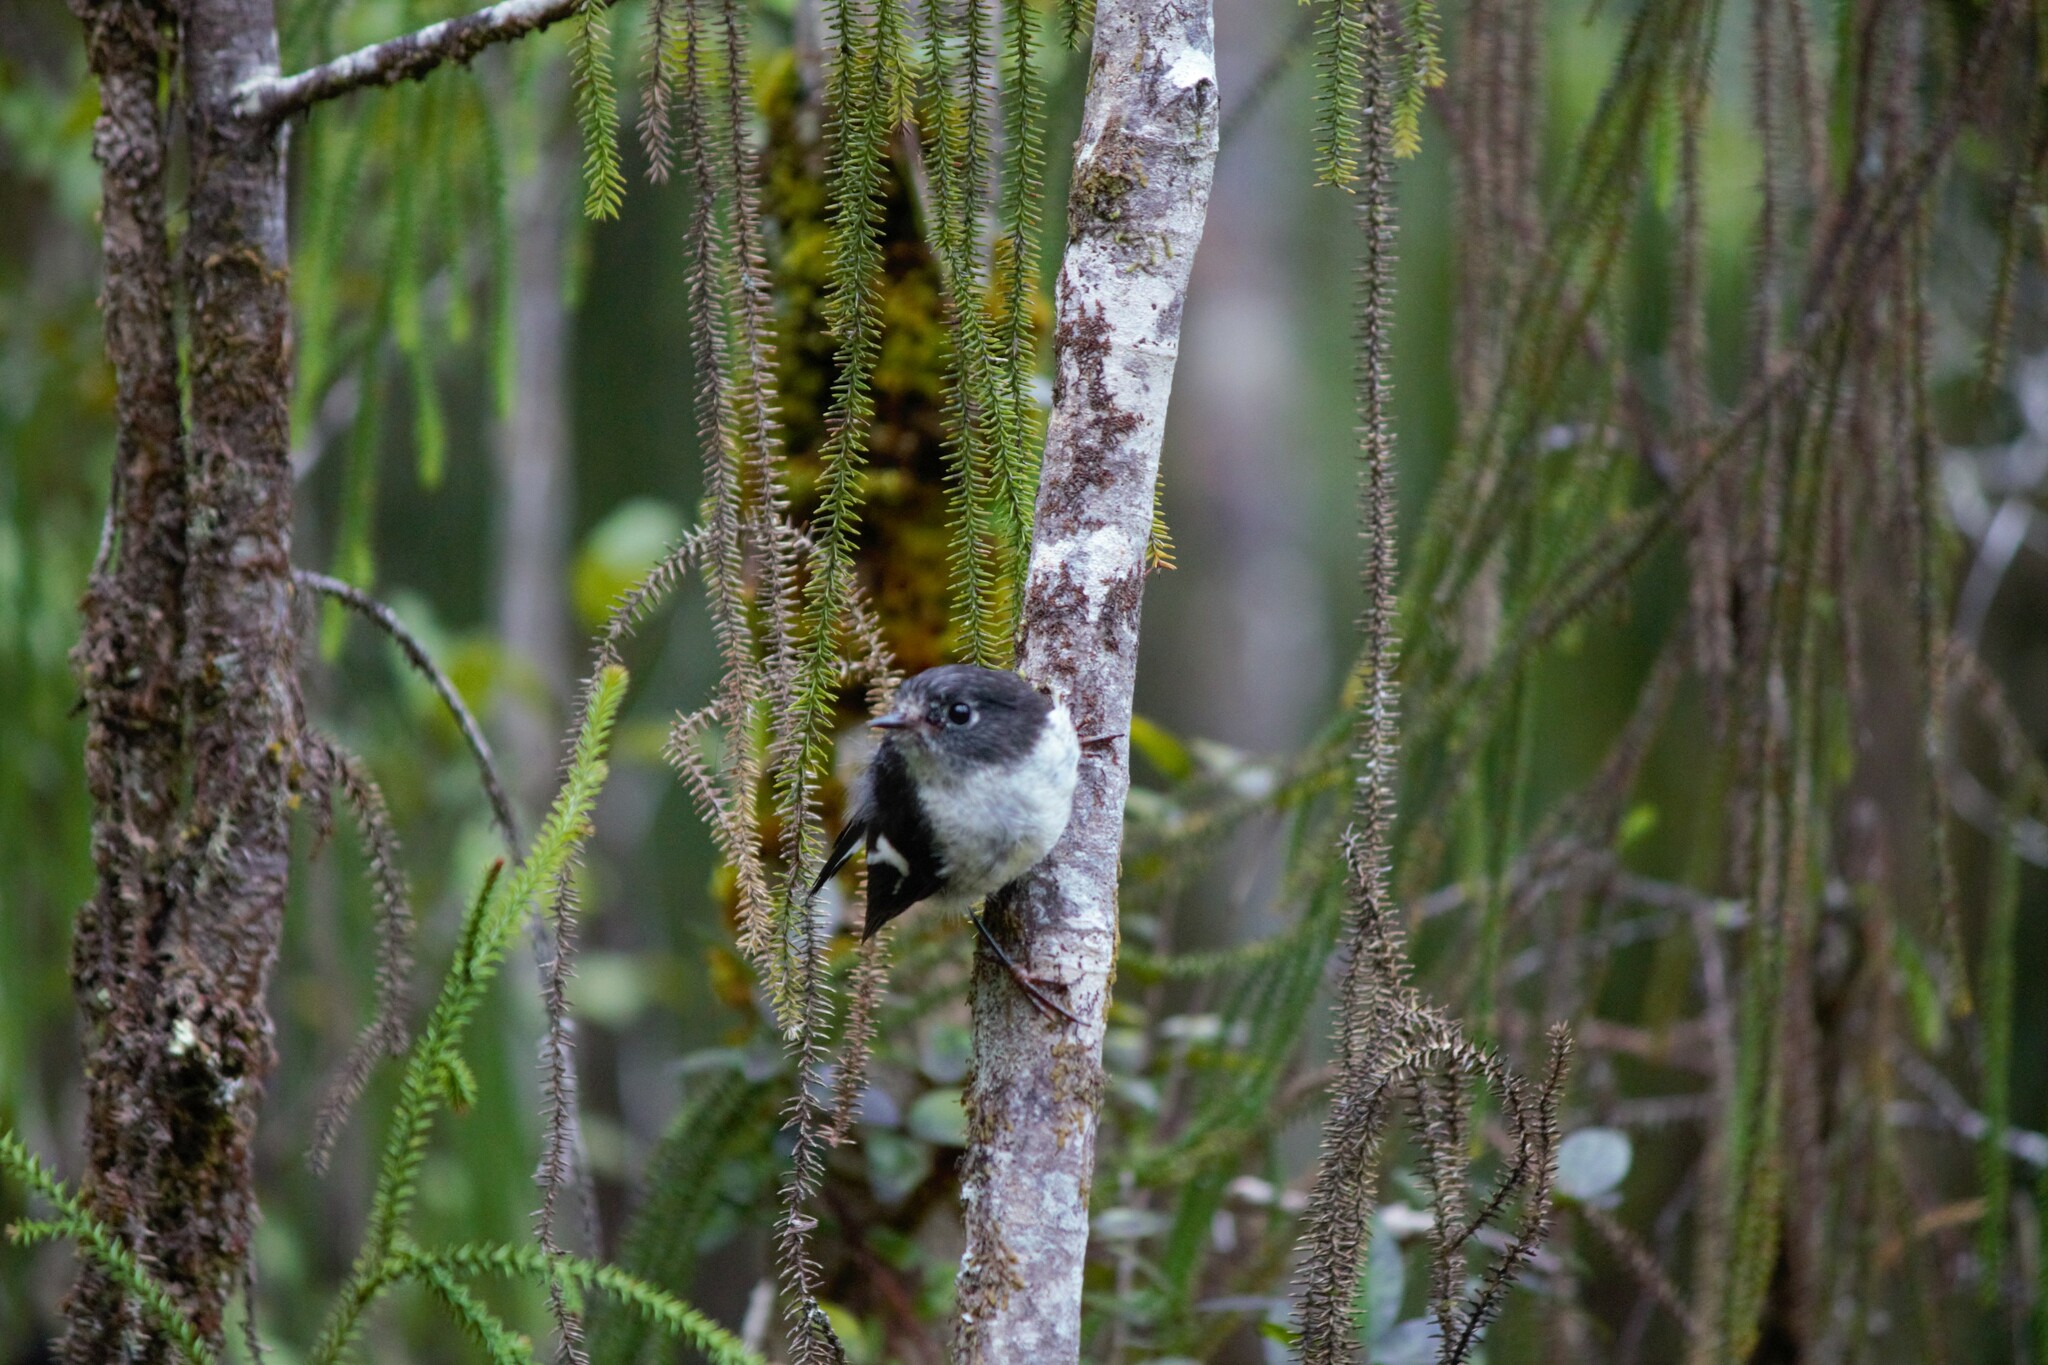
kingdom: Animalia
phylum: Chordata
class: Aves
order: Passeriformes
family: Petroicidae
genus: Petroica
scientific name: Petroica macrocephala
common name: Tomtit
